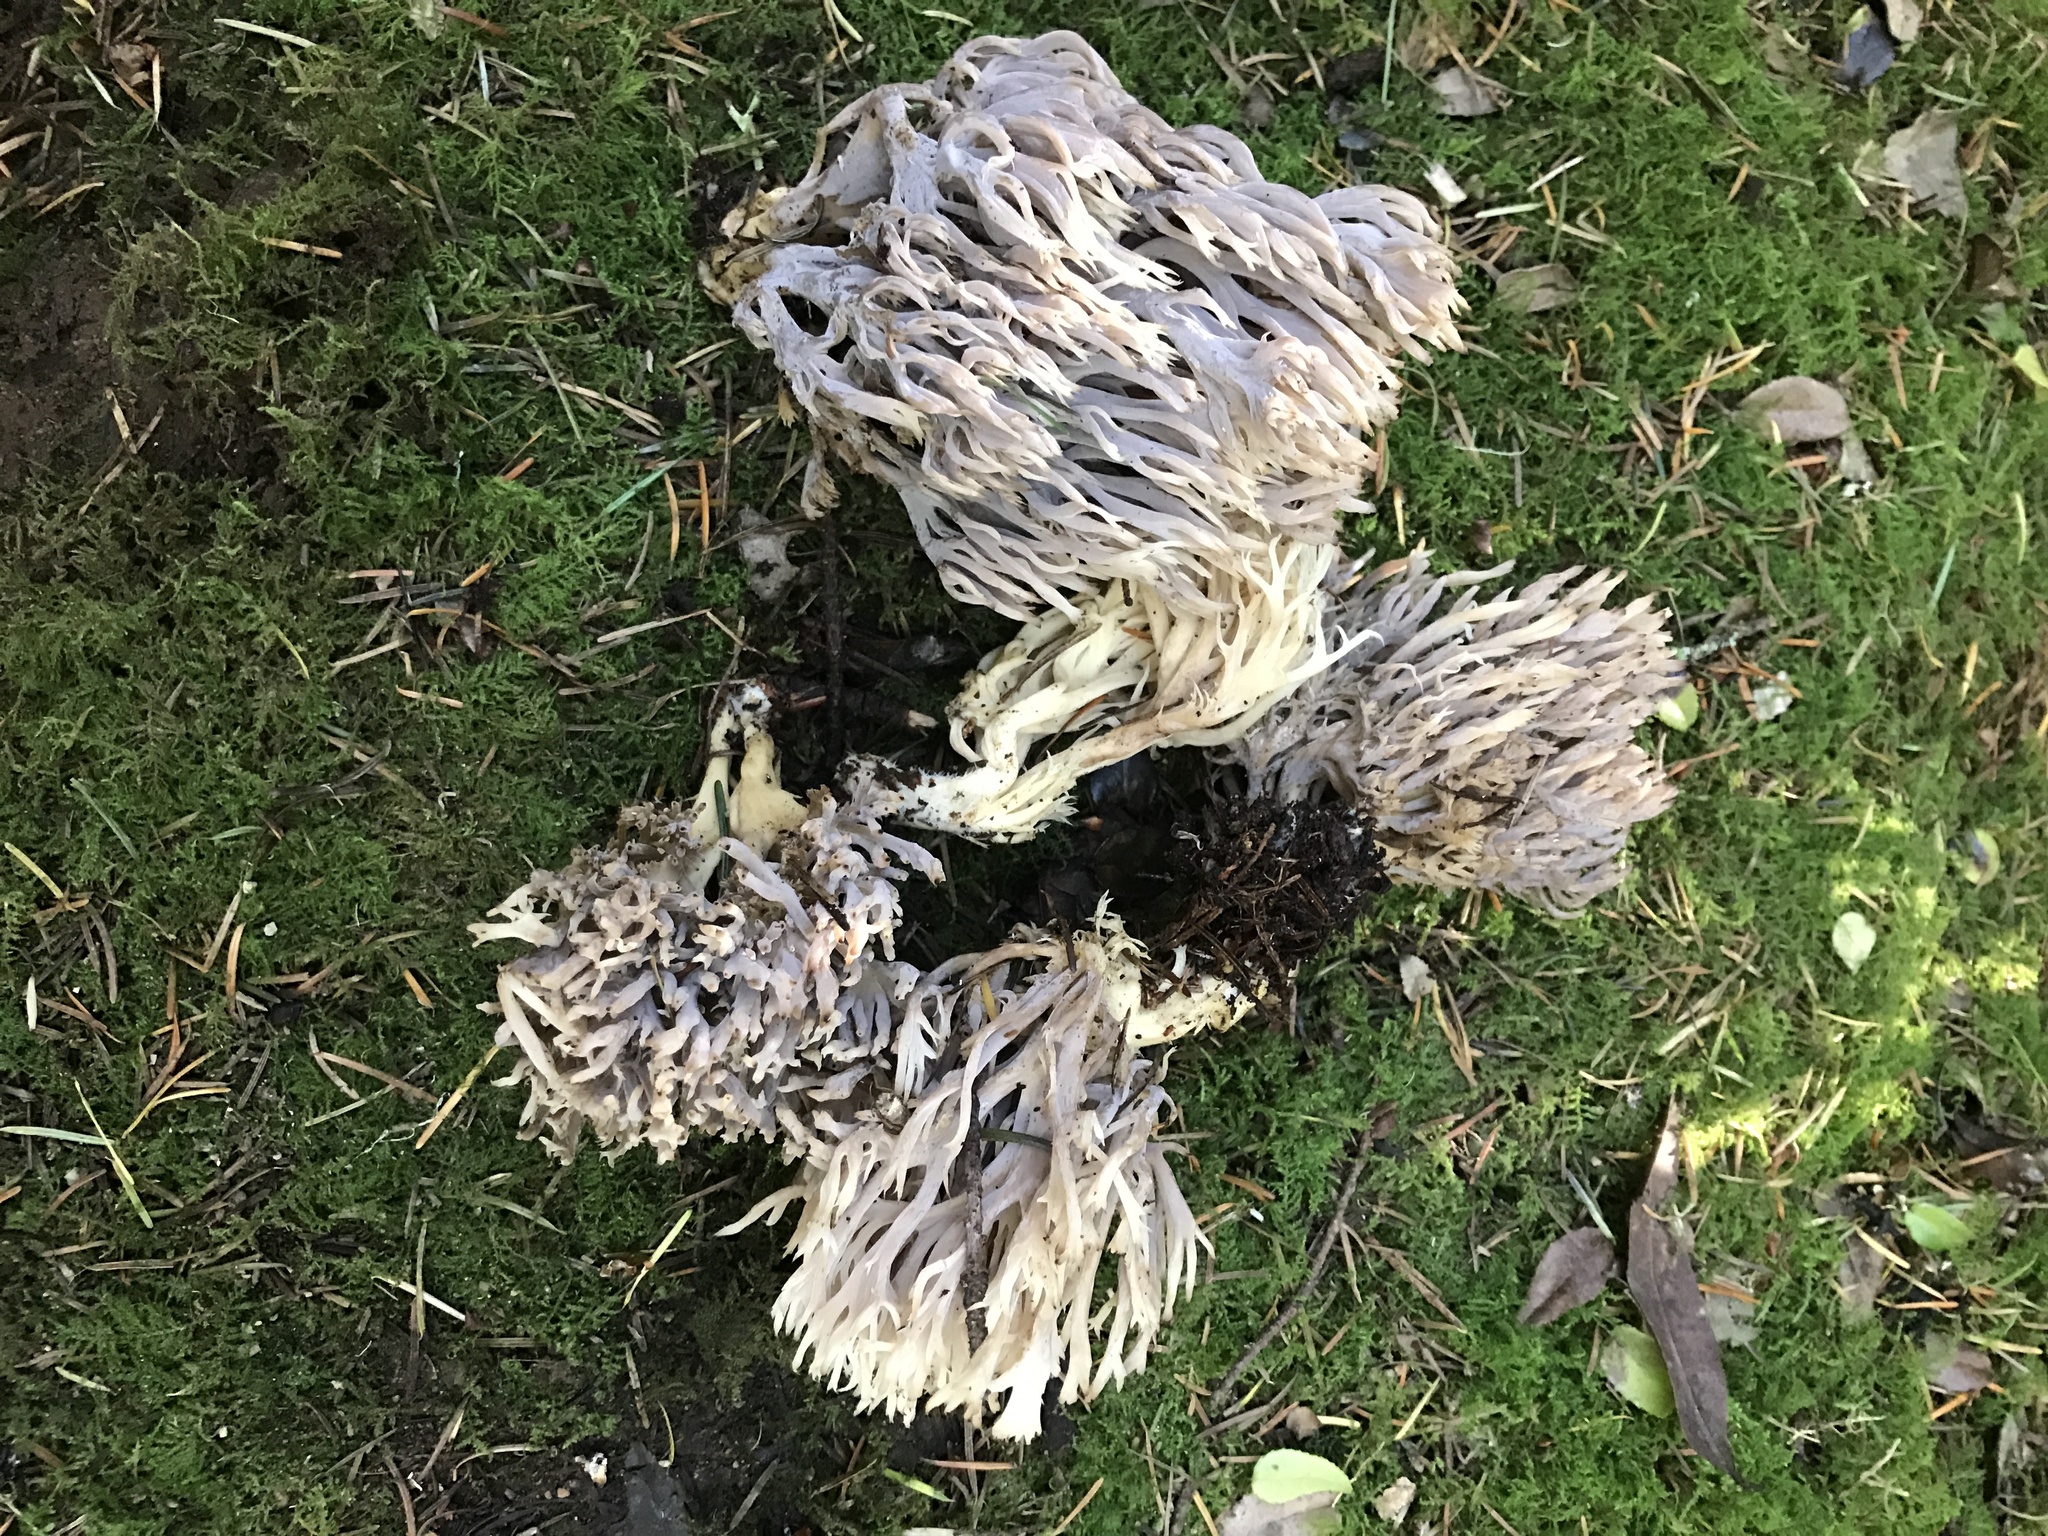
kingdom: Fungi
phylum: Basidiomycota
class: Agaricomycetes
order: Cantharellales
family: Hydnaceae
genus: Clavulina
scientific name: Clavulina cinerea
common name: Grey coral
